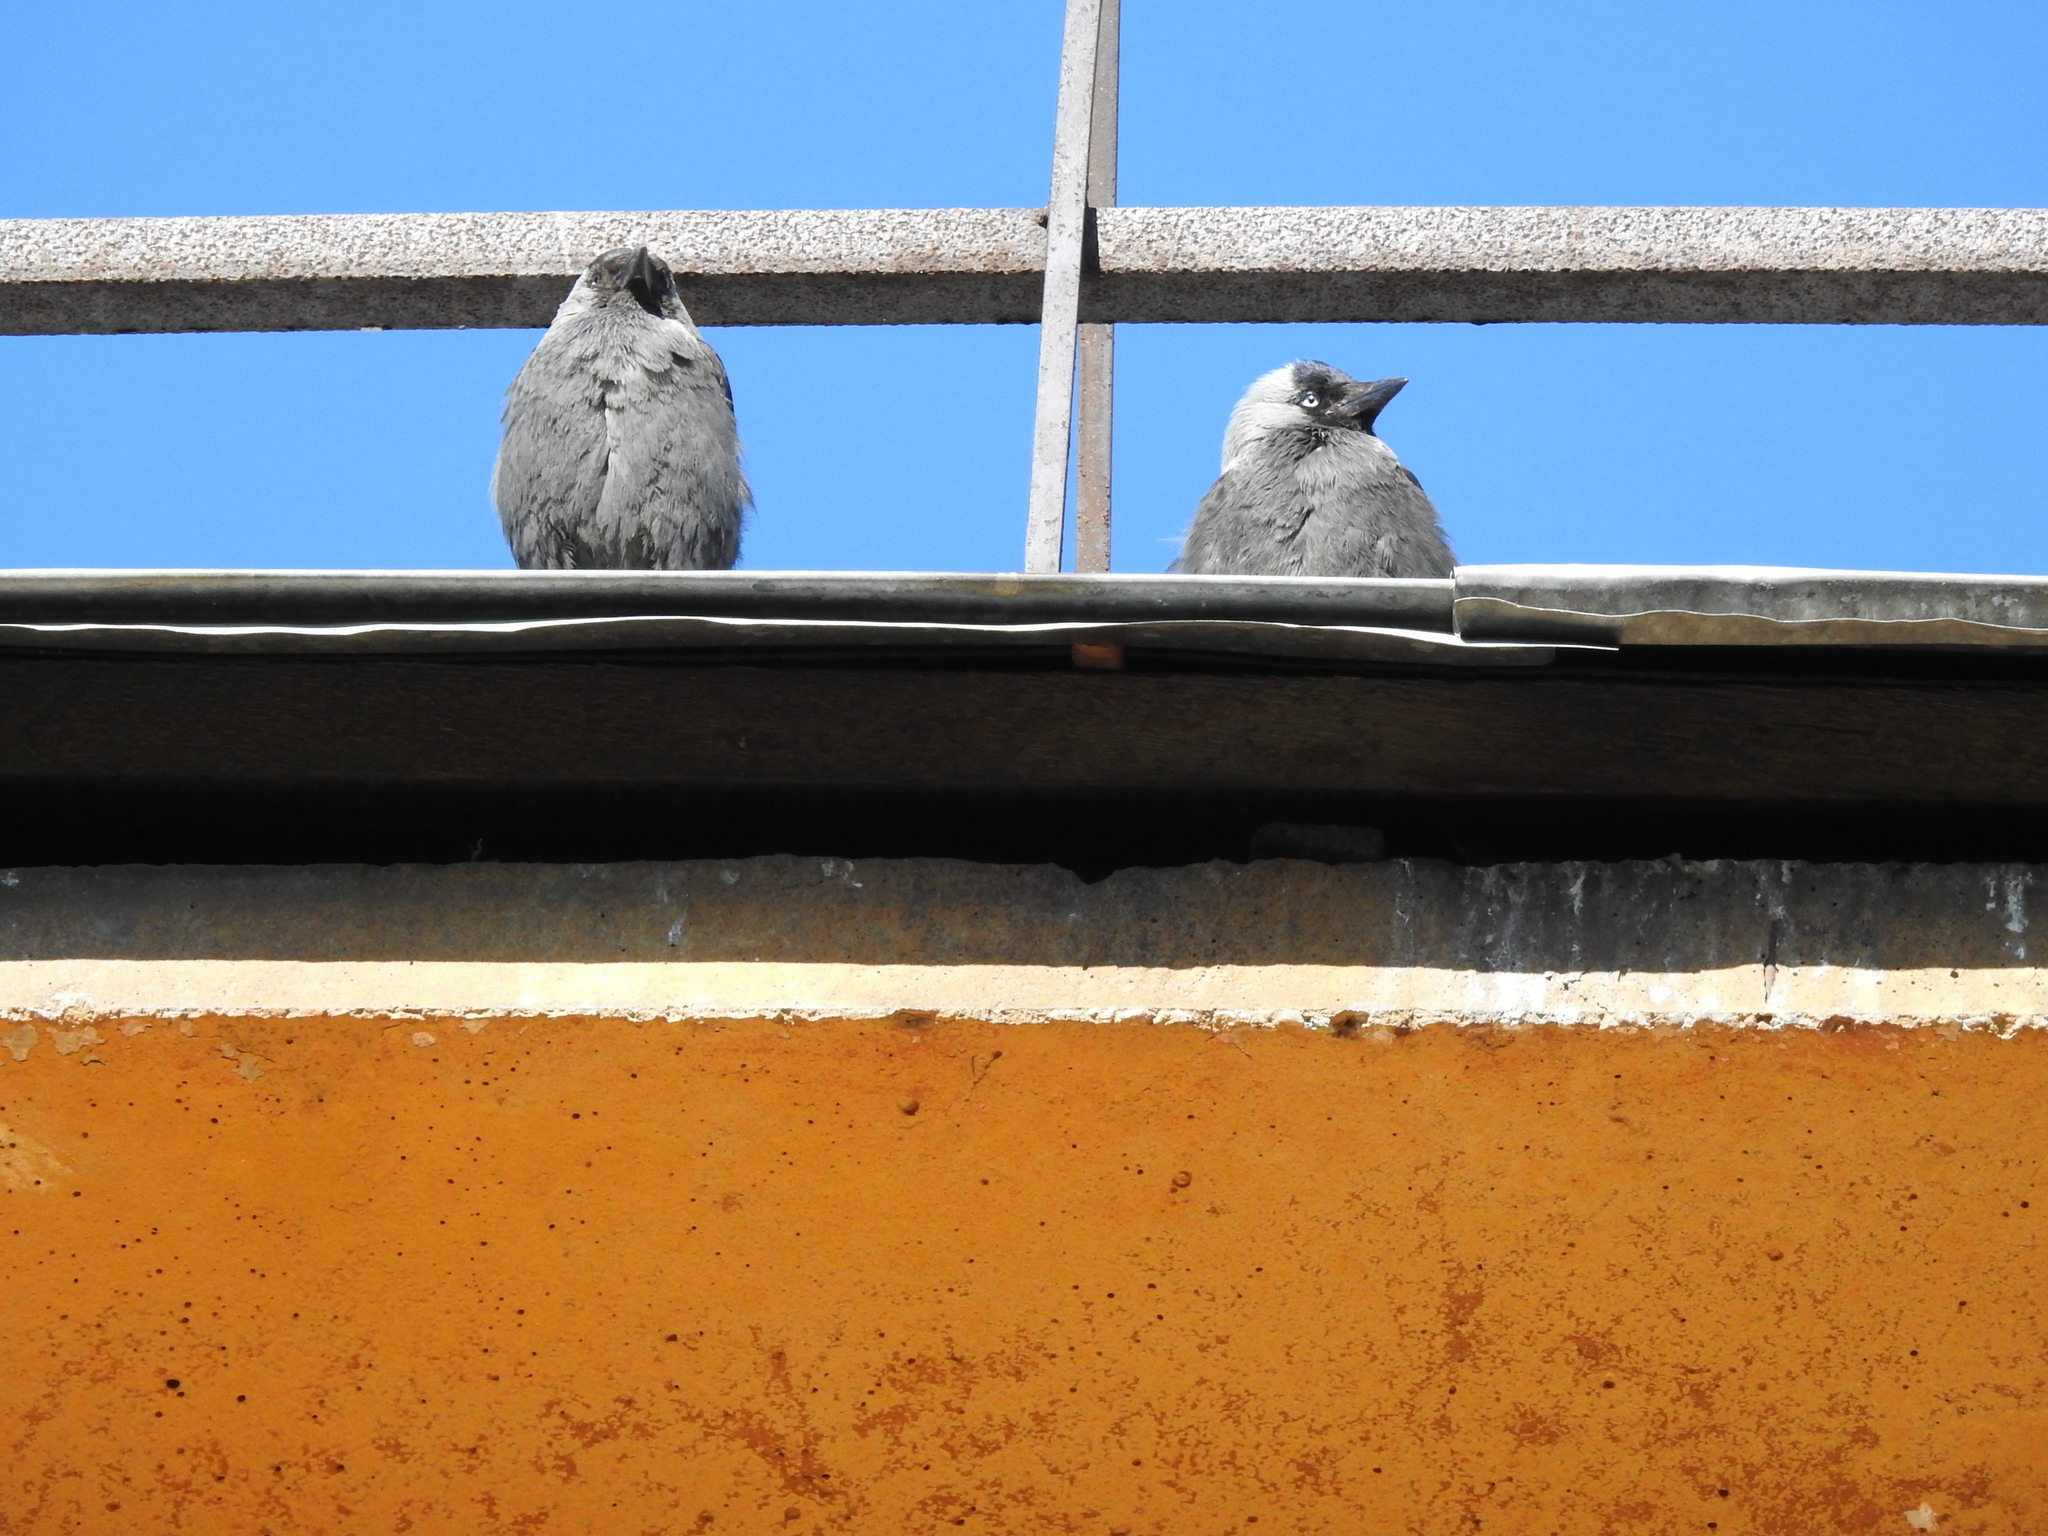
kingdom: Animalia
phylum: Chordata
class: Aves
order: Passeriformes
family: Corvidae
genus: Coloeus
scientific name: Coloeus monedula
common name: Western jackdaw
